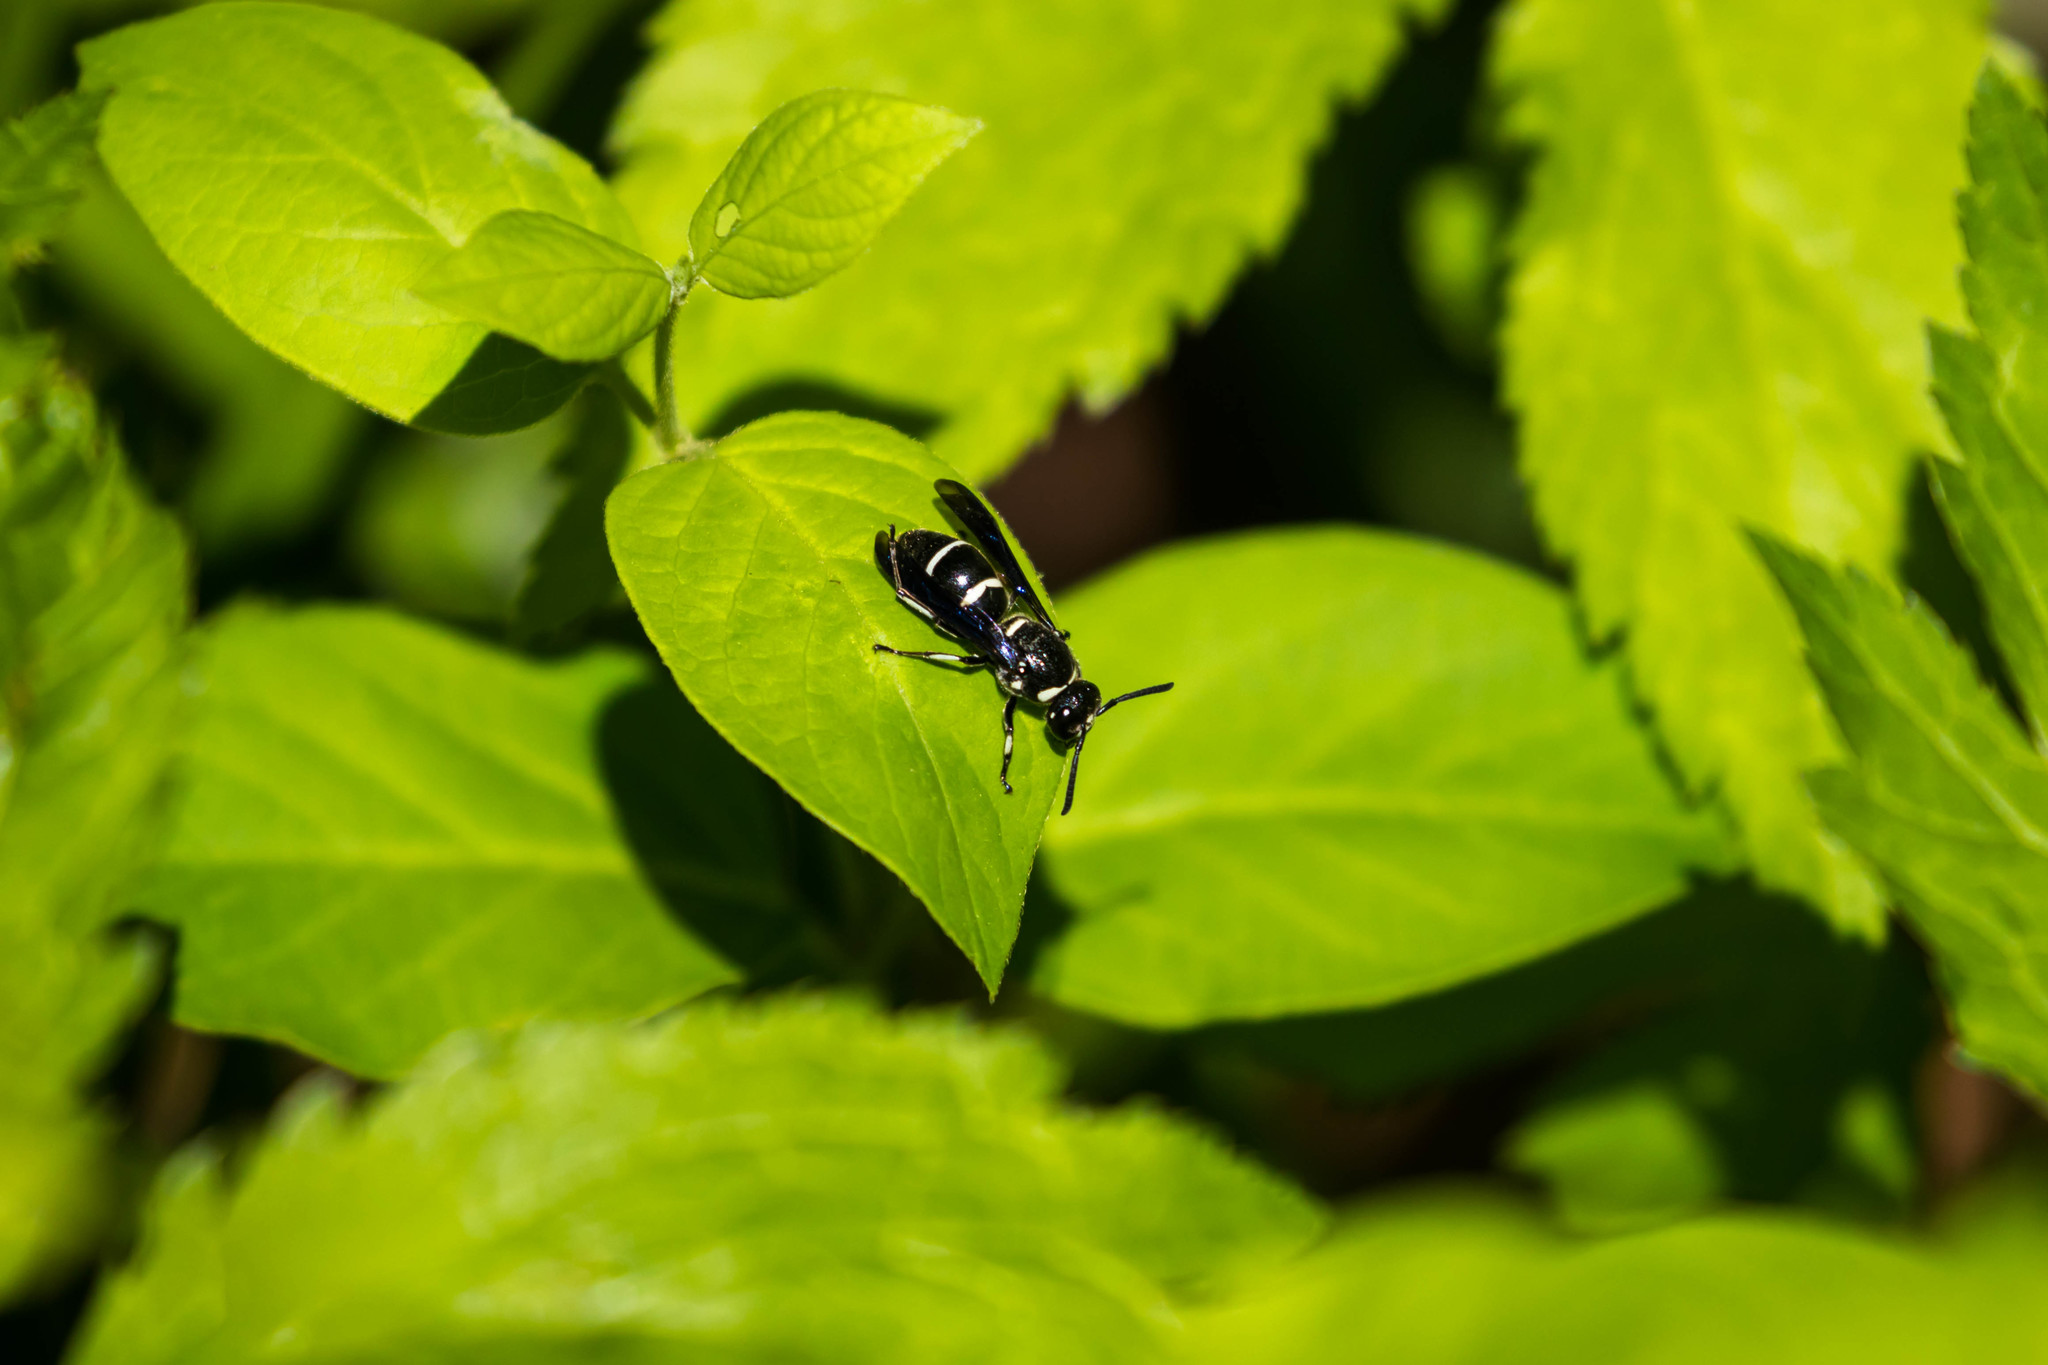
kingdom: Animalia
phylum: Arthropoda
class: Insecta
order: Hymenoptera
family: Eumenidae
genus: Euodynerus
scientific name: Euodynerus schwarzi
